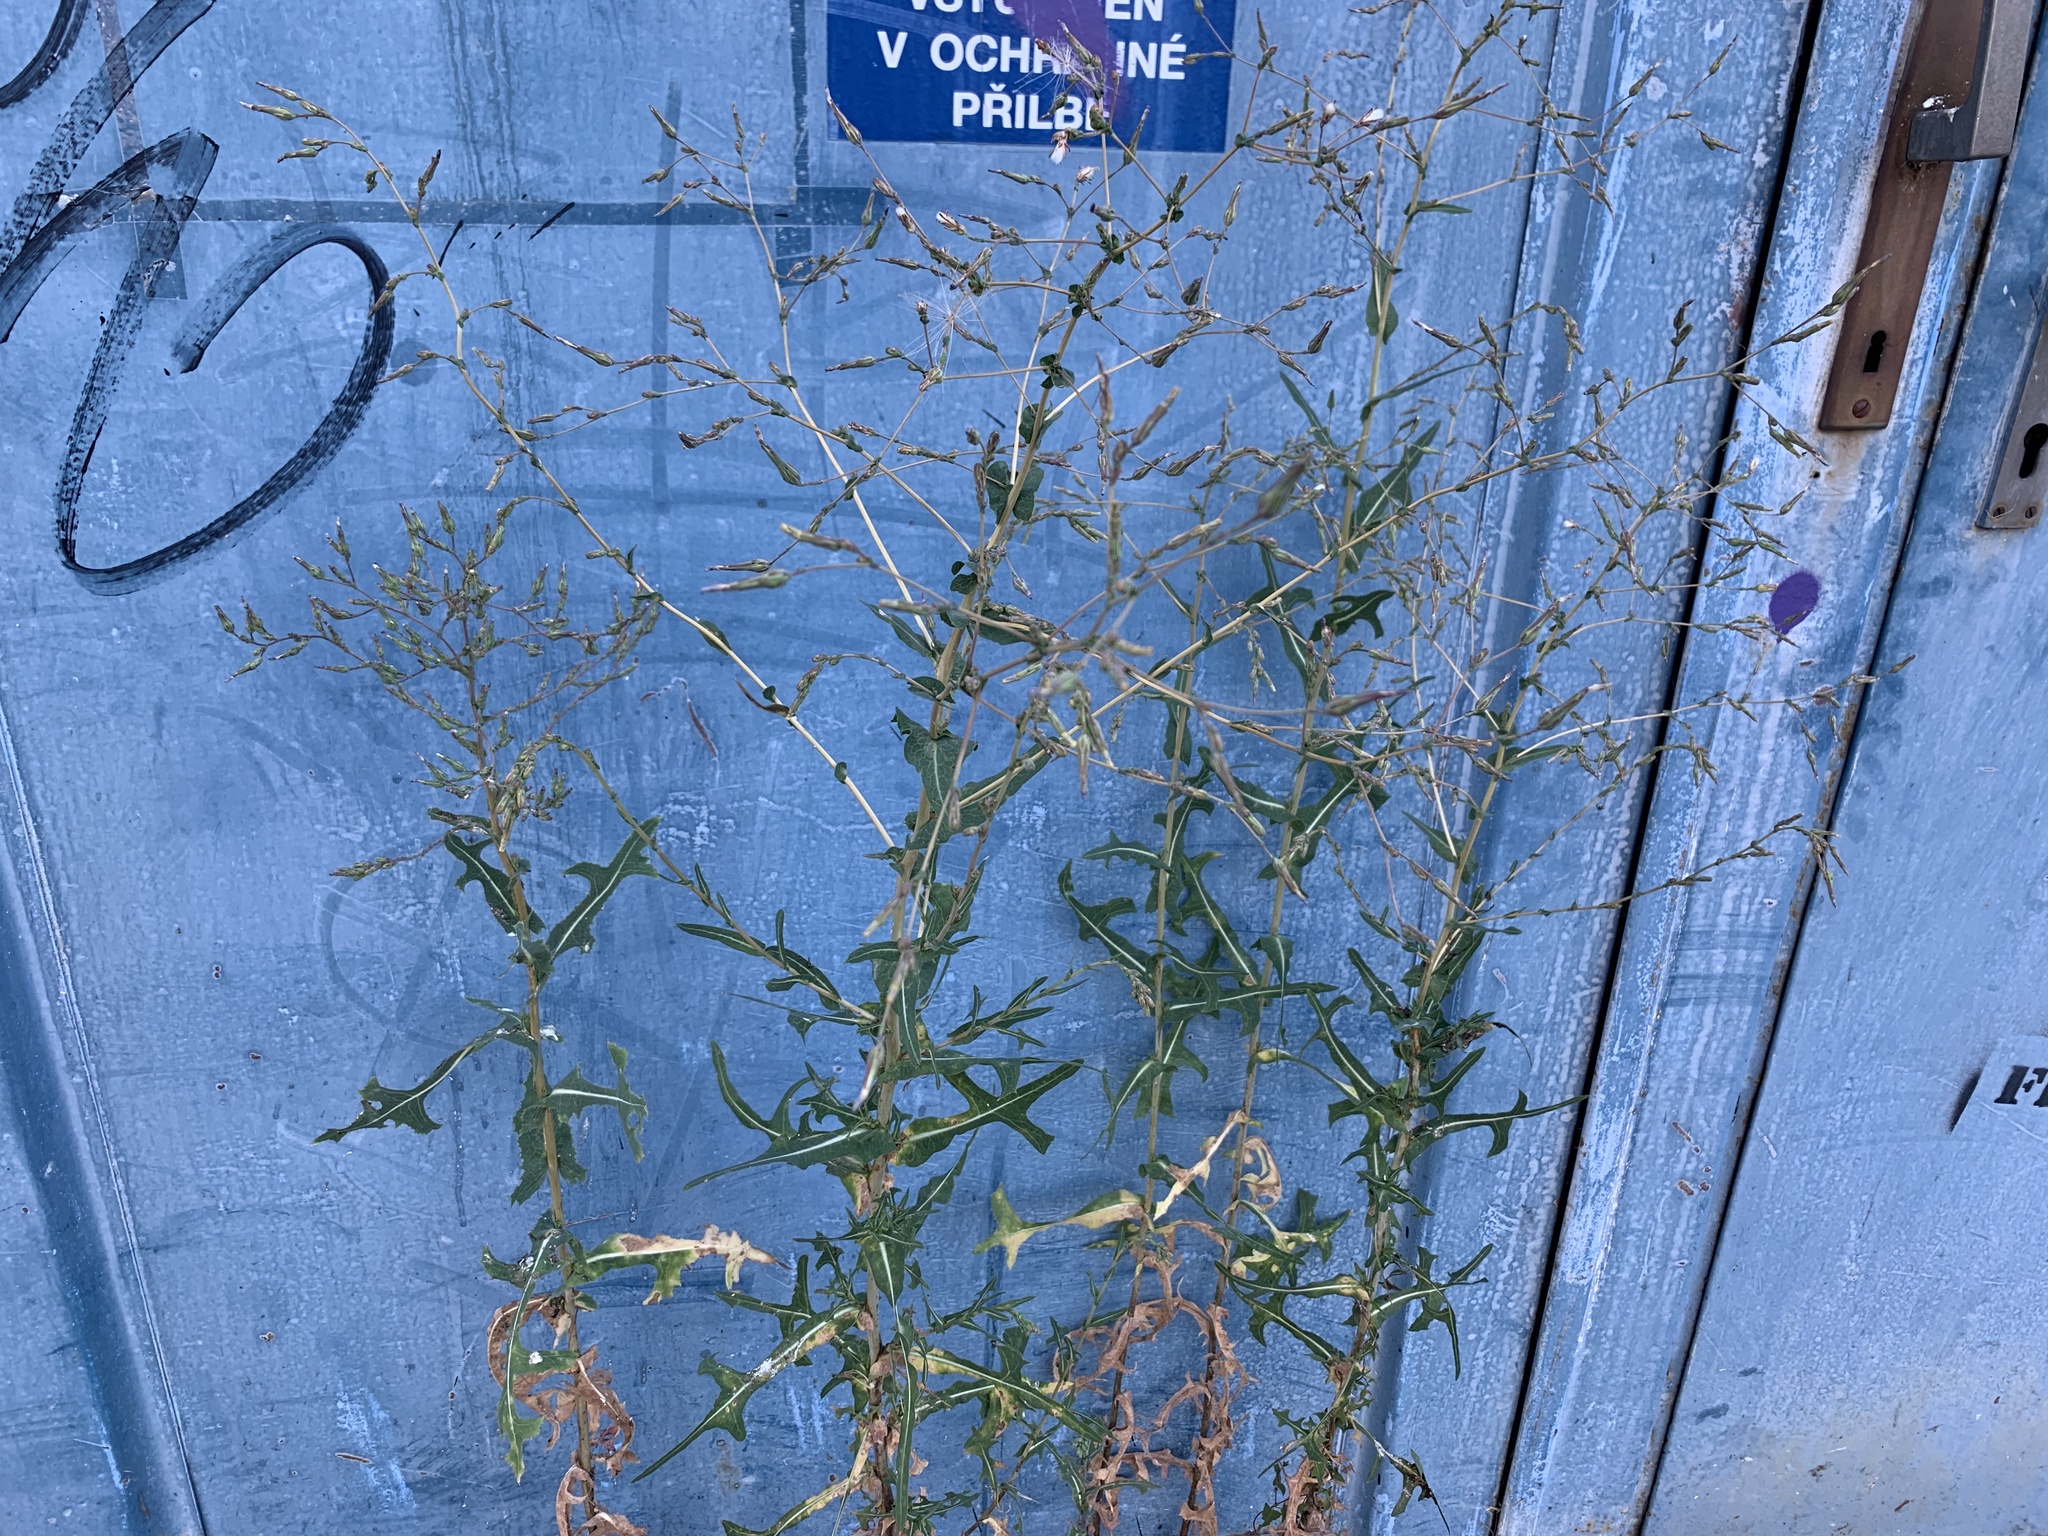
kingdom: Plantae
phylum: Tracheophyta
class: Magnoliopsida
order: Asterales
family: Asteraceae
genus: Lactuca
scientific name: Lactuca serriola
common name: Prickly lettuce
